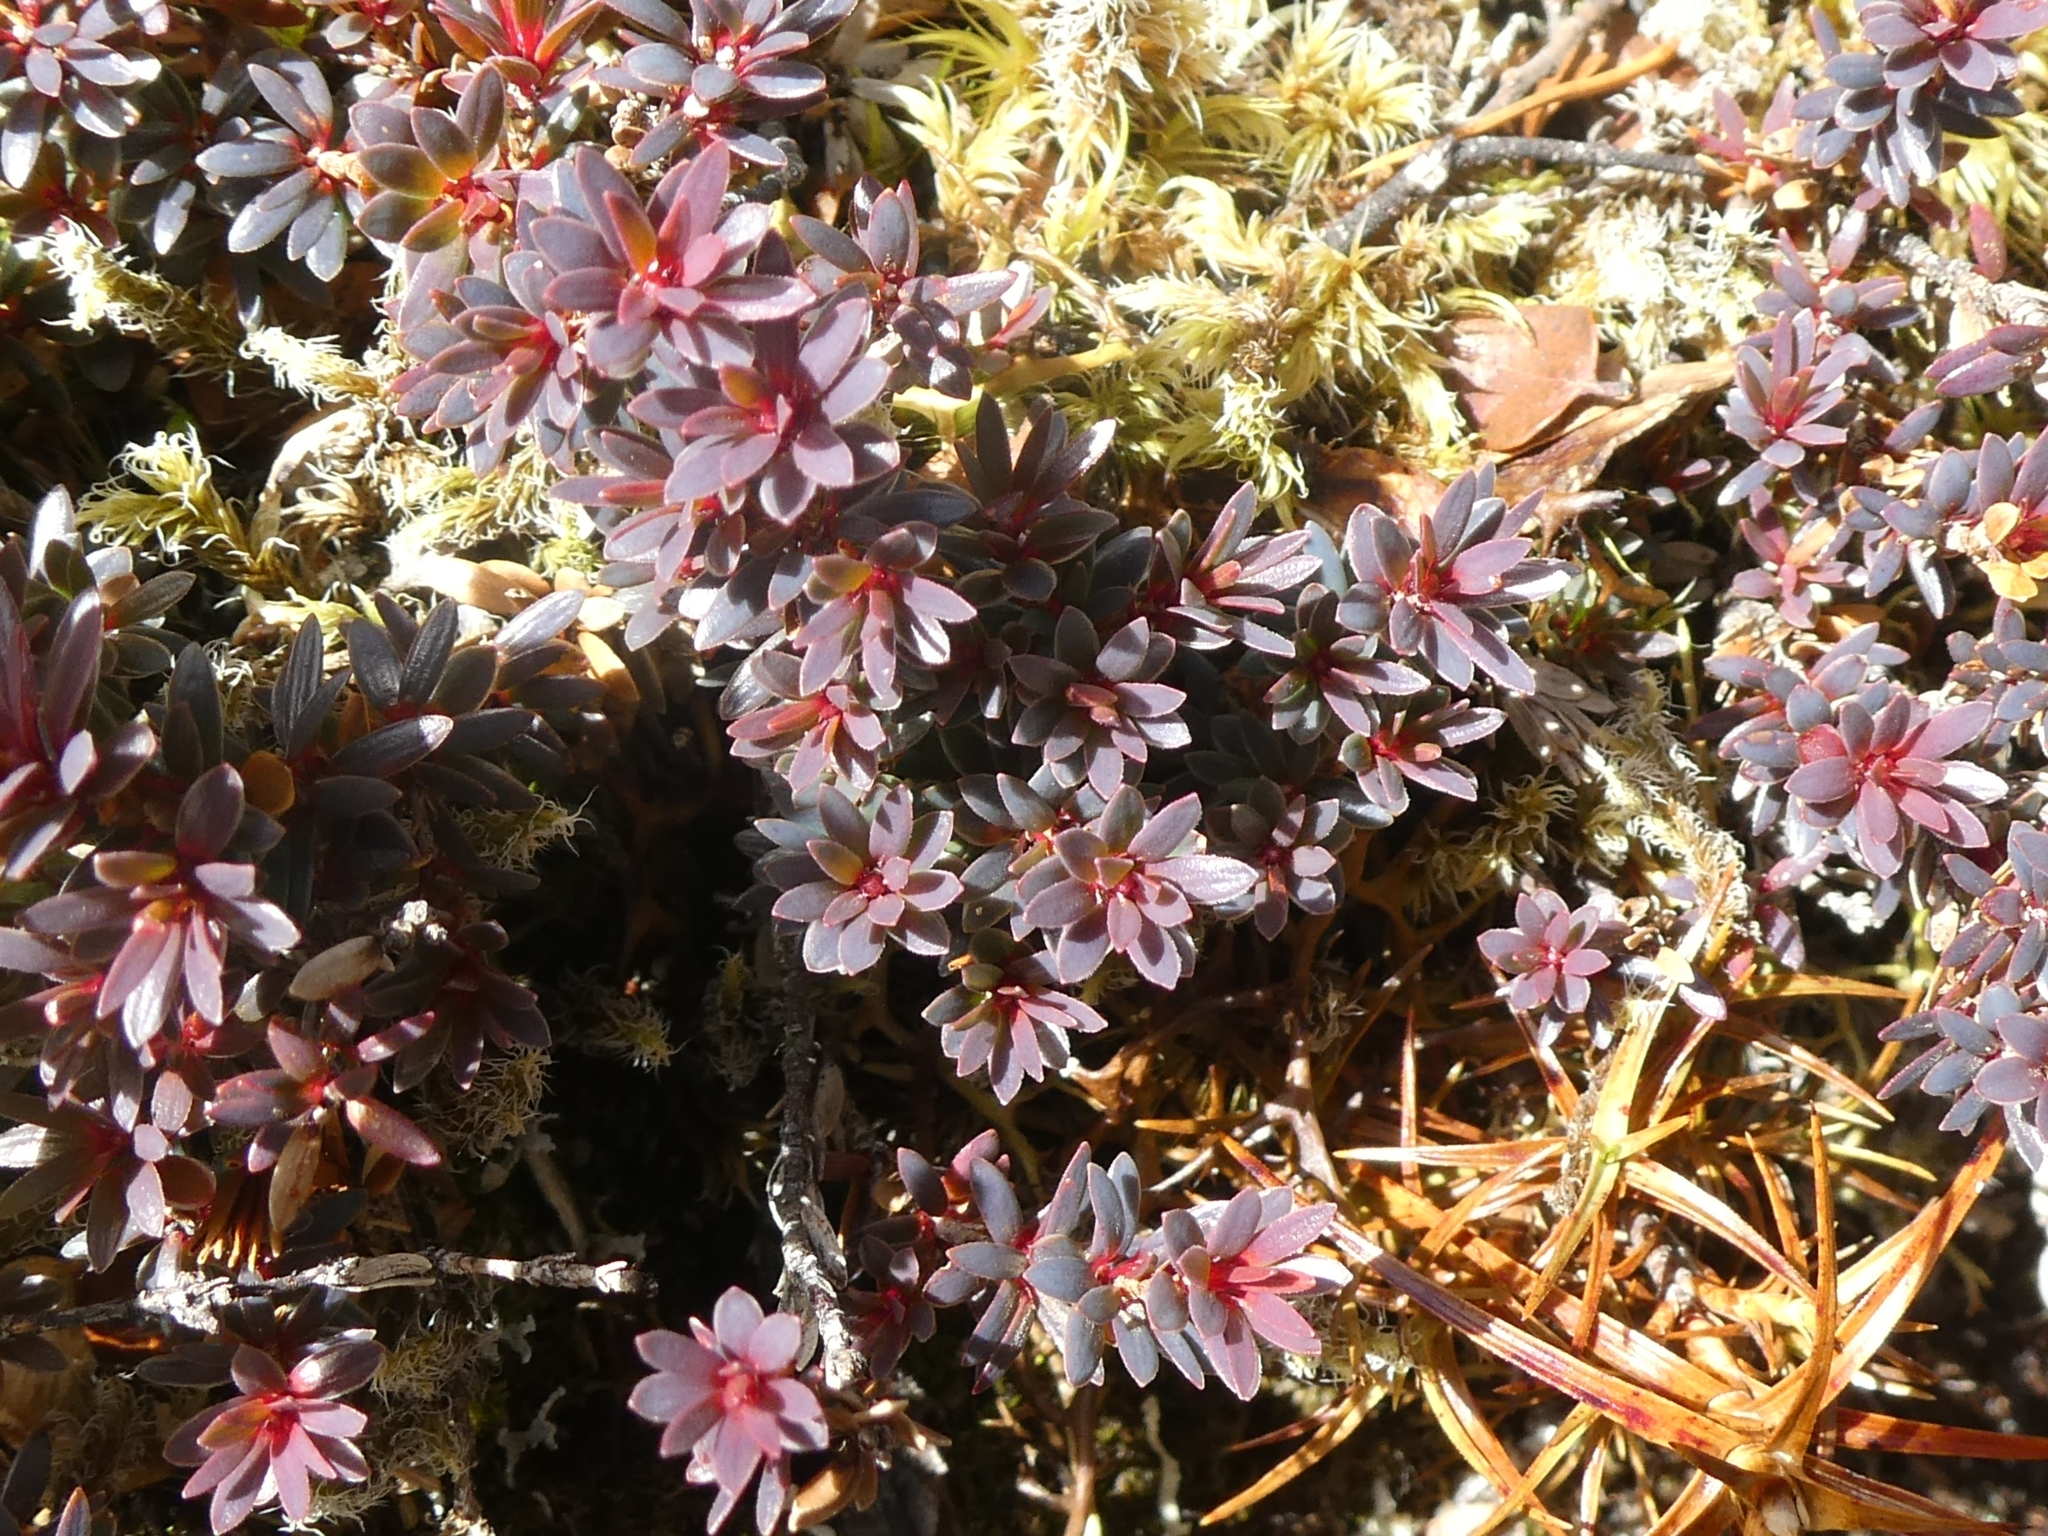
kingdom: Plantae
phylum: Tracheophyta
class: Magnoliopsida
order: Ericales
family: Ericaceae
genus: Pentachondra
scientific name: Pentachondra pumila
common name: Carpet-heath
